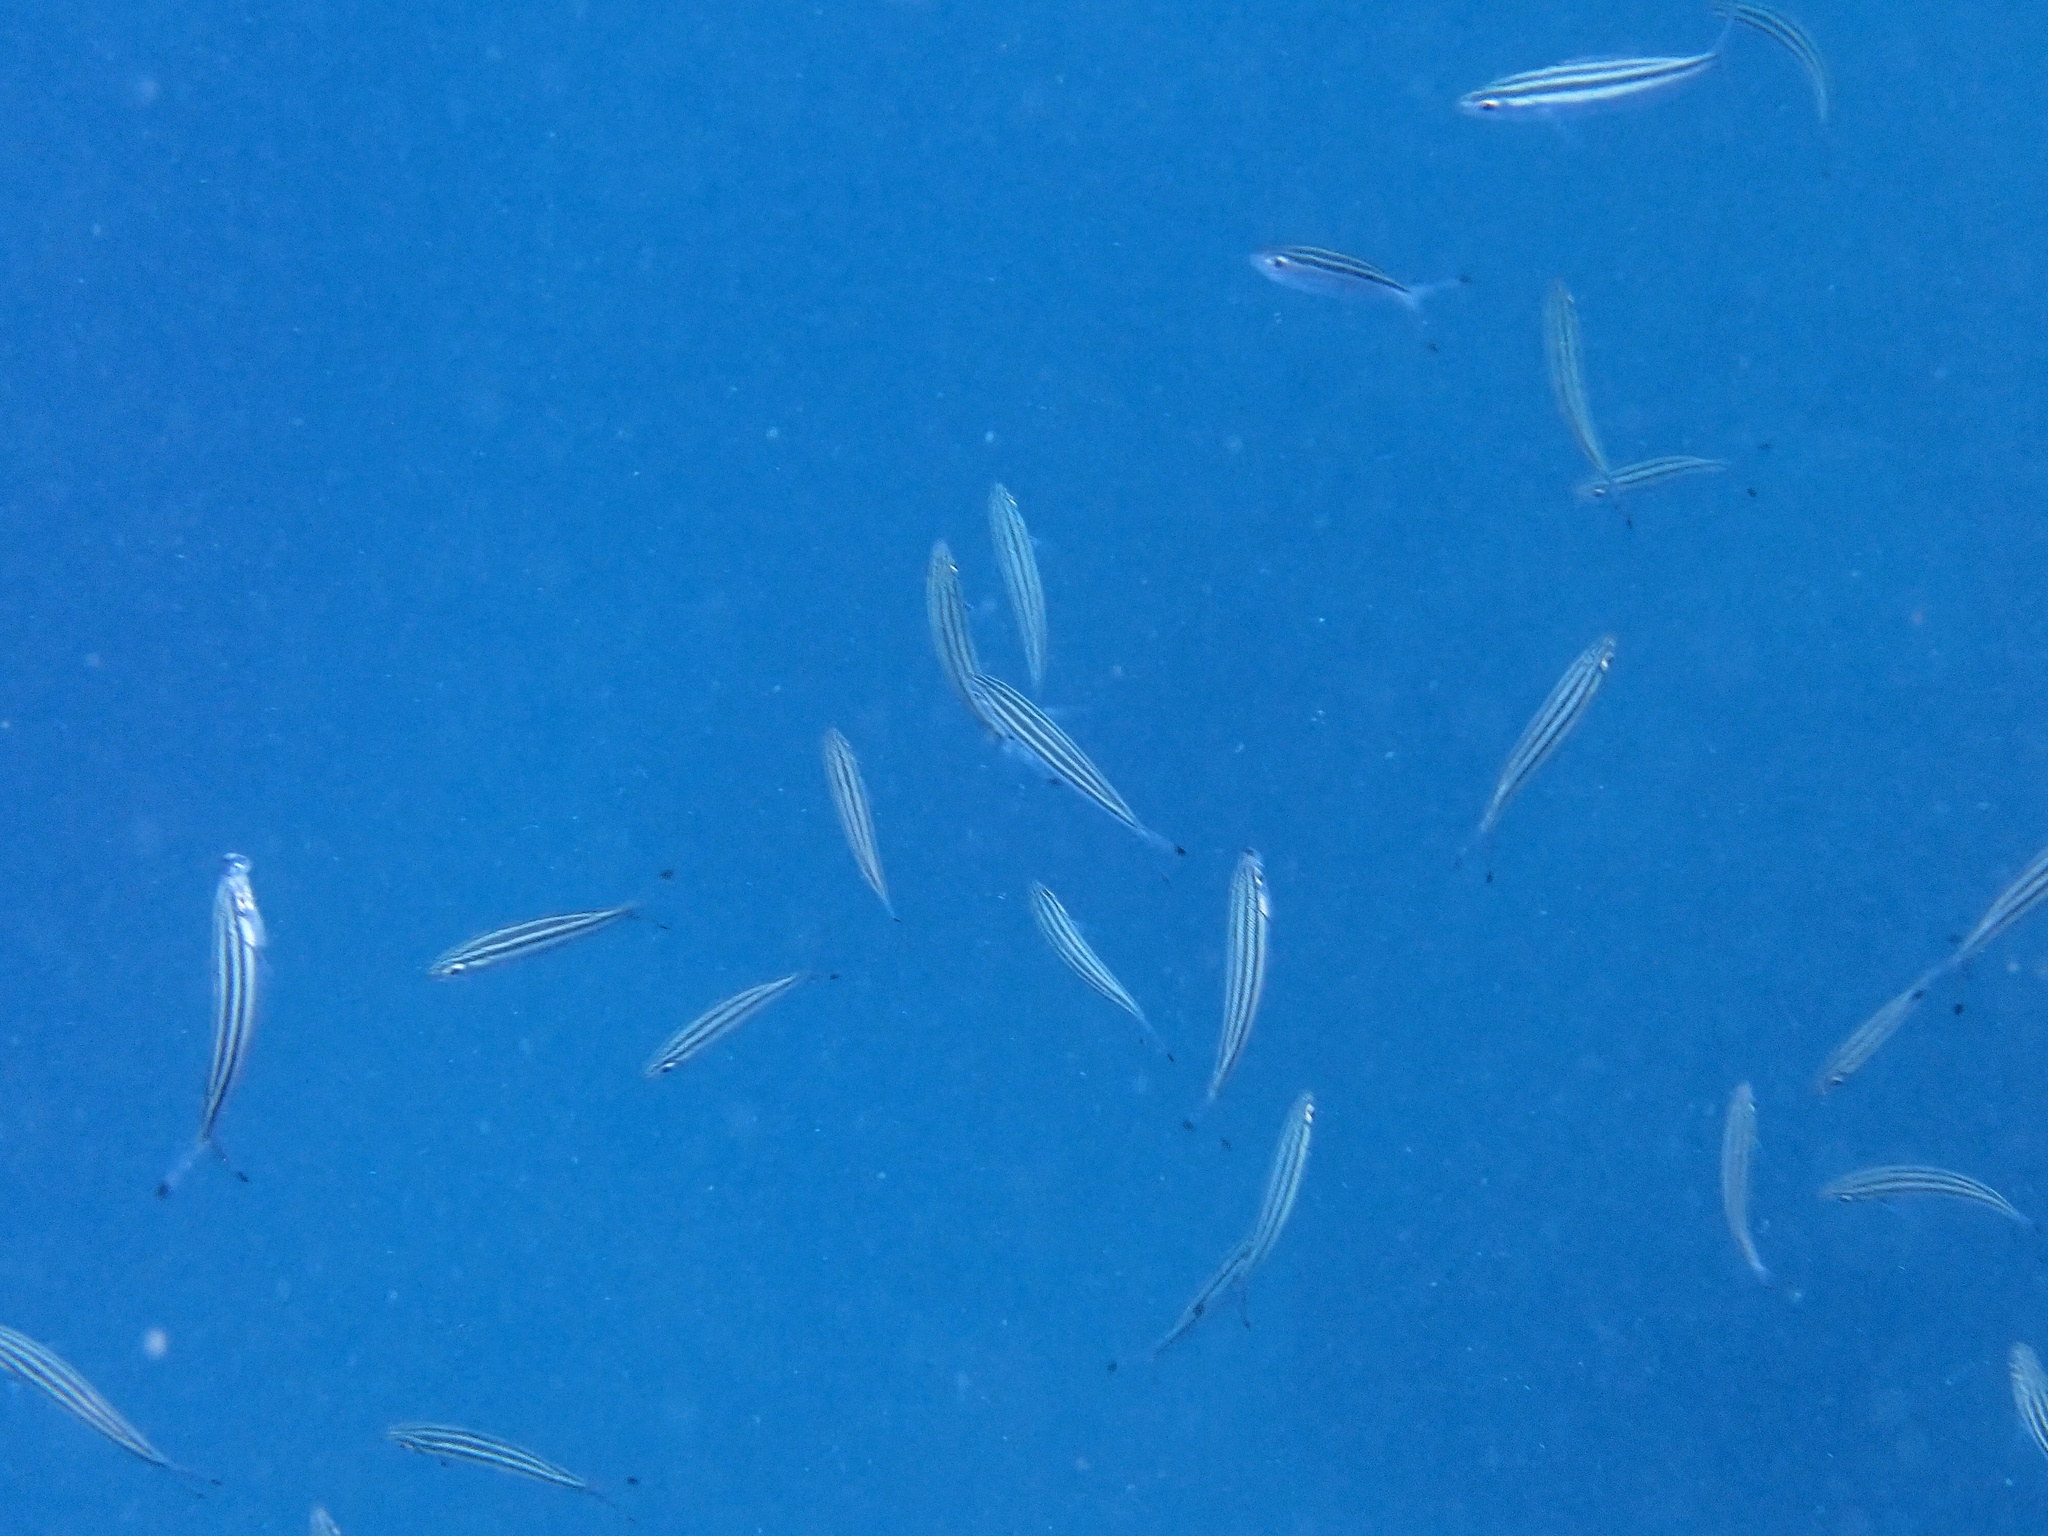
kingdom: Animalia
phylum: Chordata
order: Perciformes
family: Caesionidae
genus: Pterocaesio
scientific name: Pterocaesio trilineata
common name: Striped fusilier
